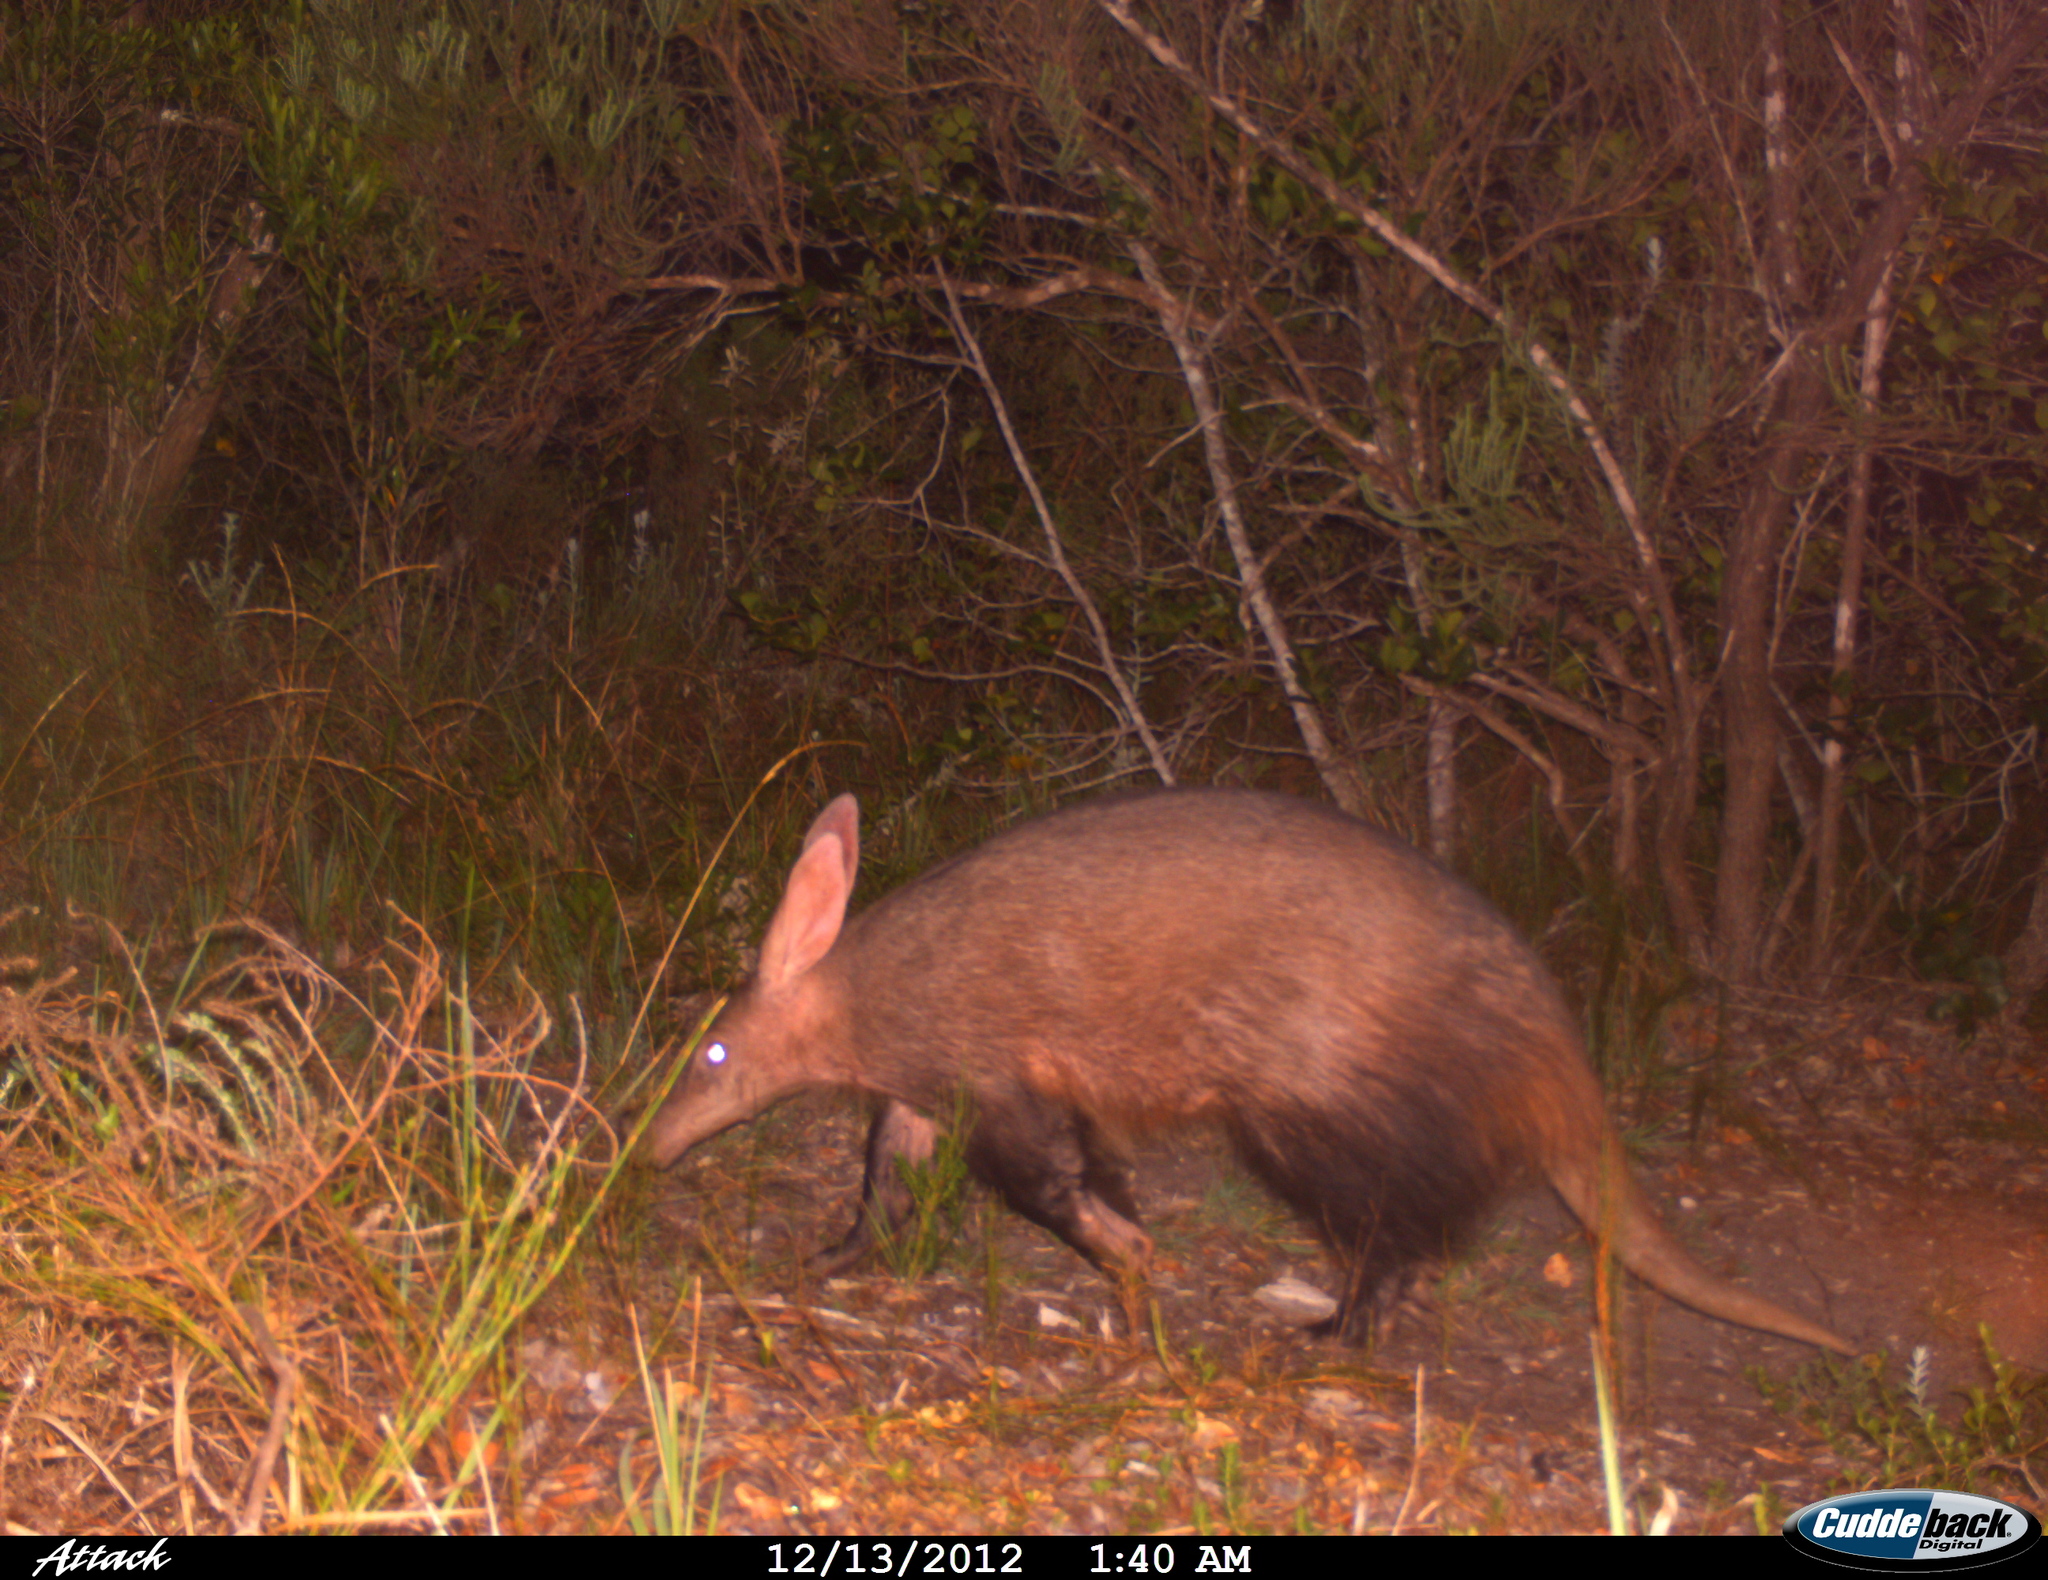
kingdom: Animalia
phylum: Chordata
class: Mammalia
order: Tubulidentata
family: Orycteropodidae
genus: Orycteropus
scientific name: Orycteropus afer
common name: Aardvark
